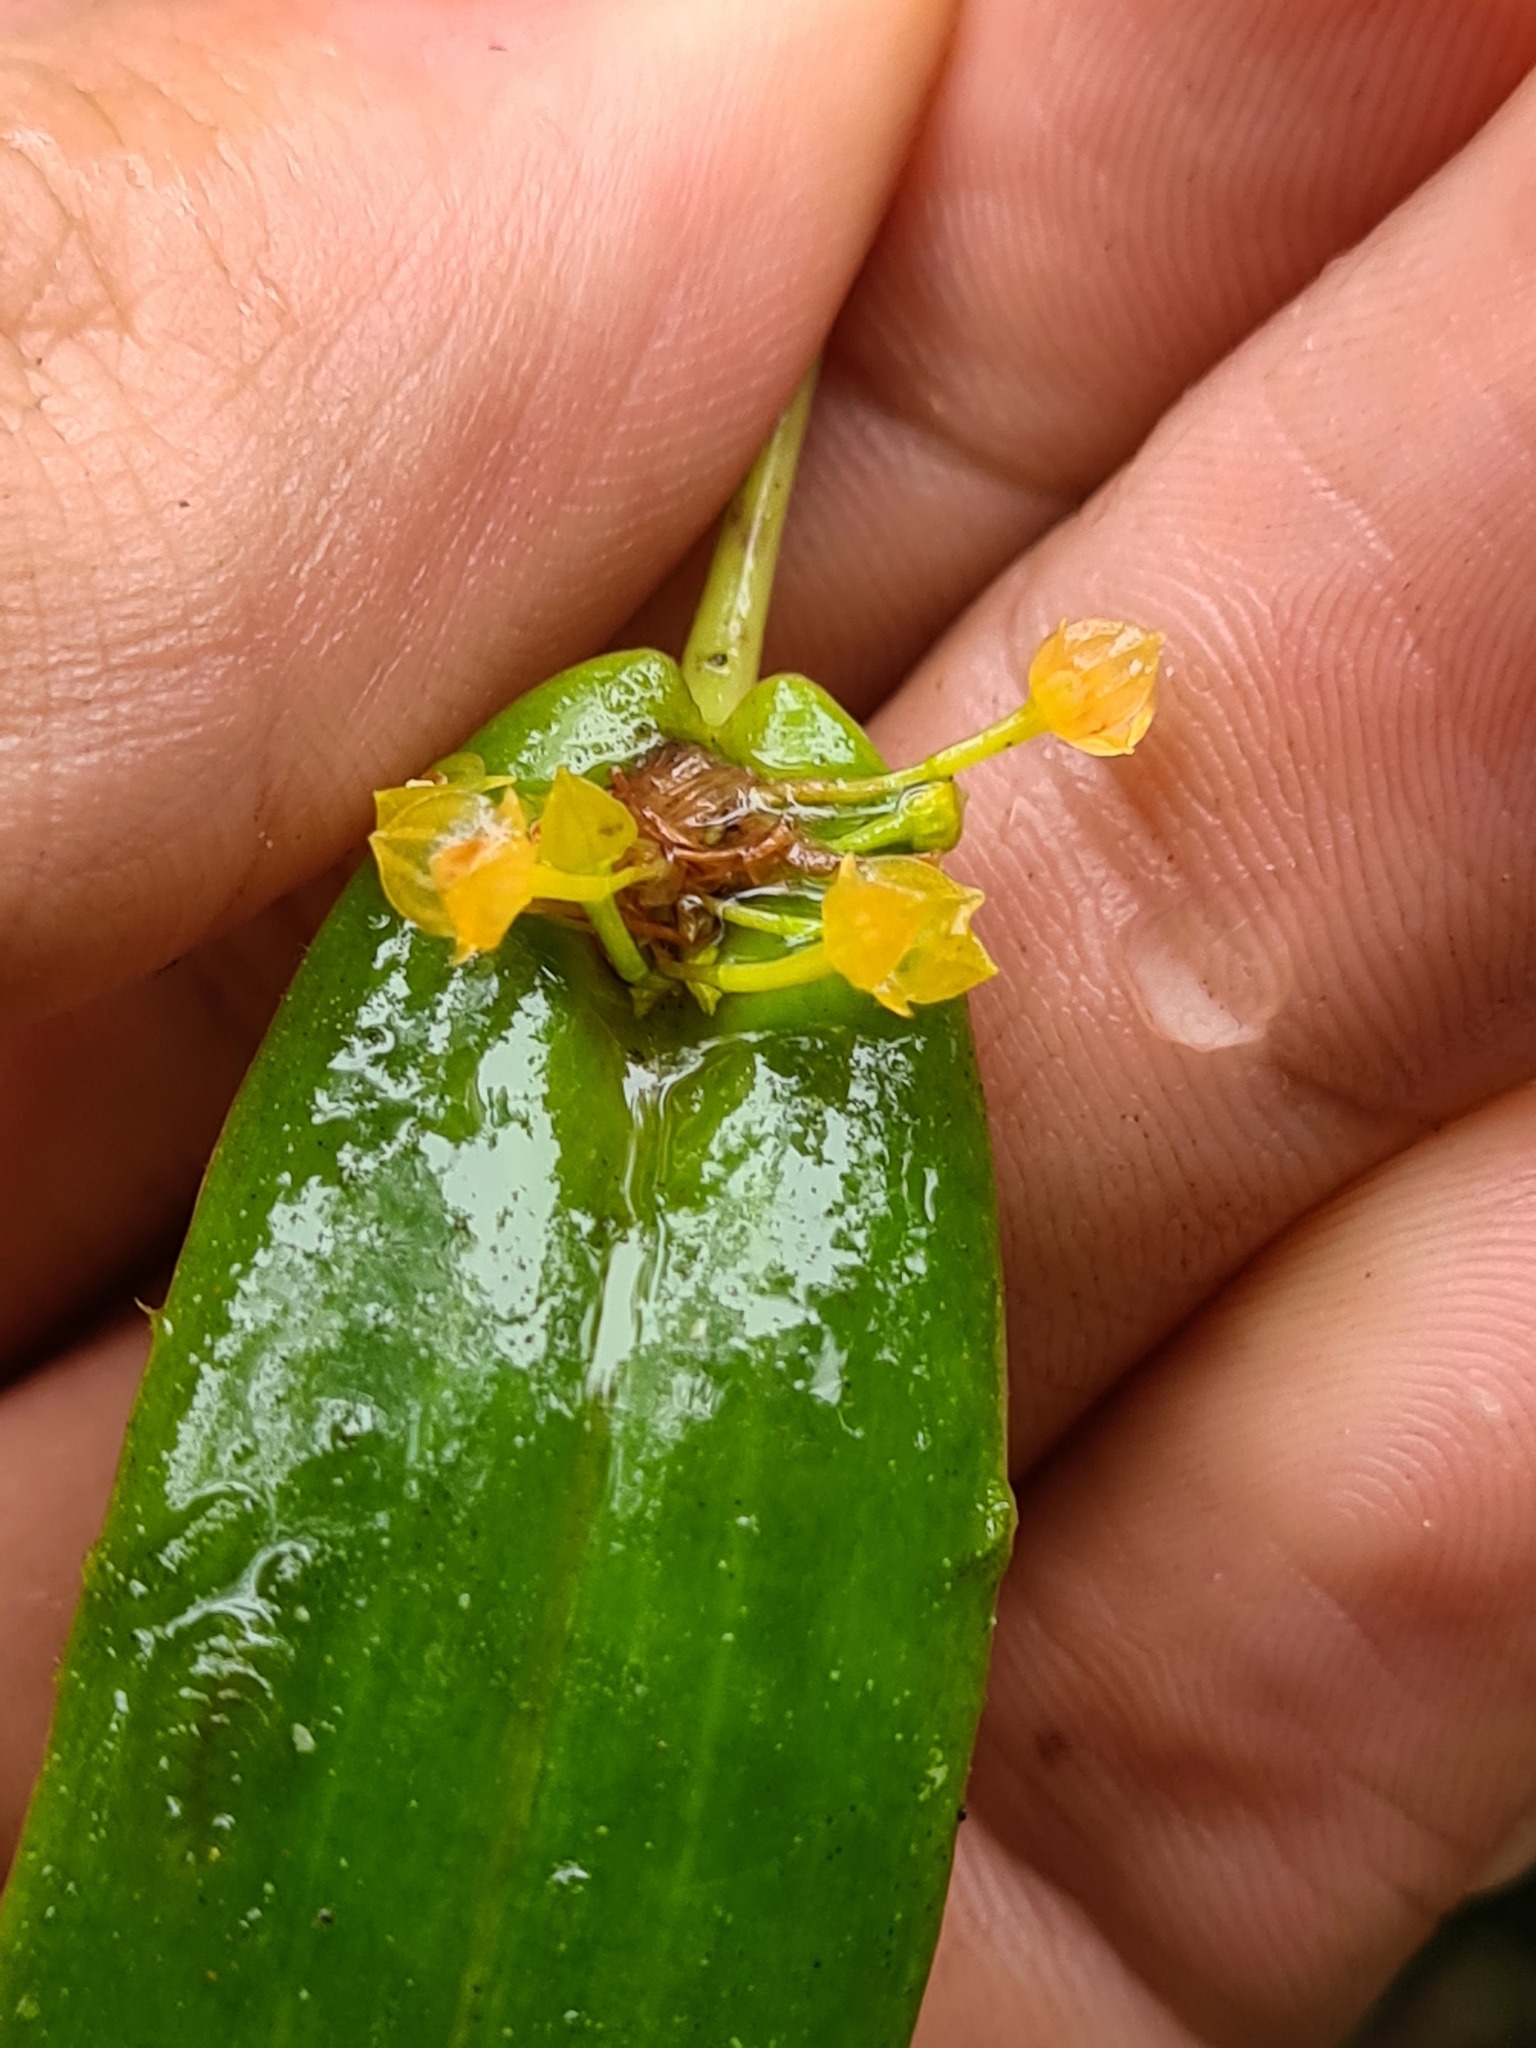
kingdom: Plantae
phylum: Tracheophyta
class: Liliopsida
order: Asparagales
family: Orchidaceae
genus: Pleurothallis
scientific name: Pleurothallis dibolia
